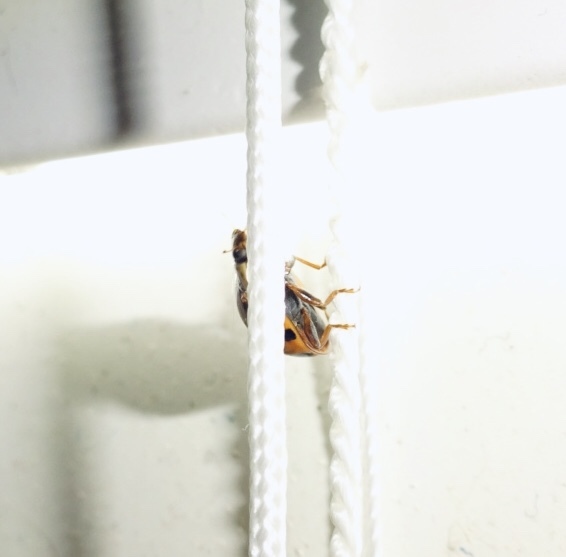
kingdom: Animalia
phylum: Arthropoda
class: Insecta
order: Coleoptera
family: Coccinellidae
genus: Harmonia
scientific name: Harmonia axyridis
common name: Harlequin ladybird
